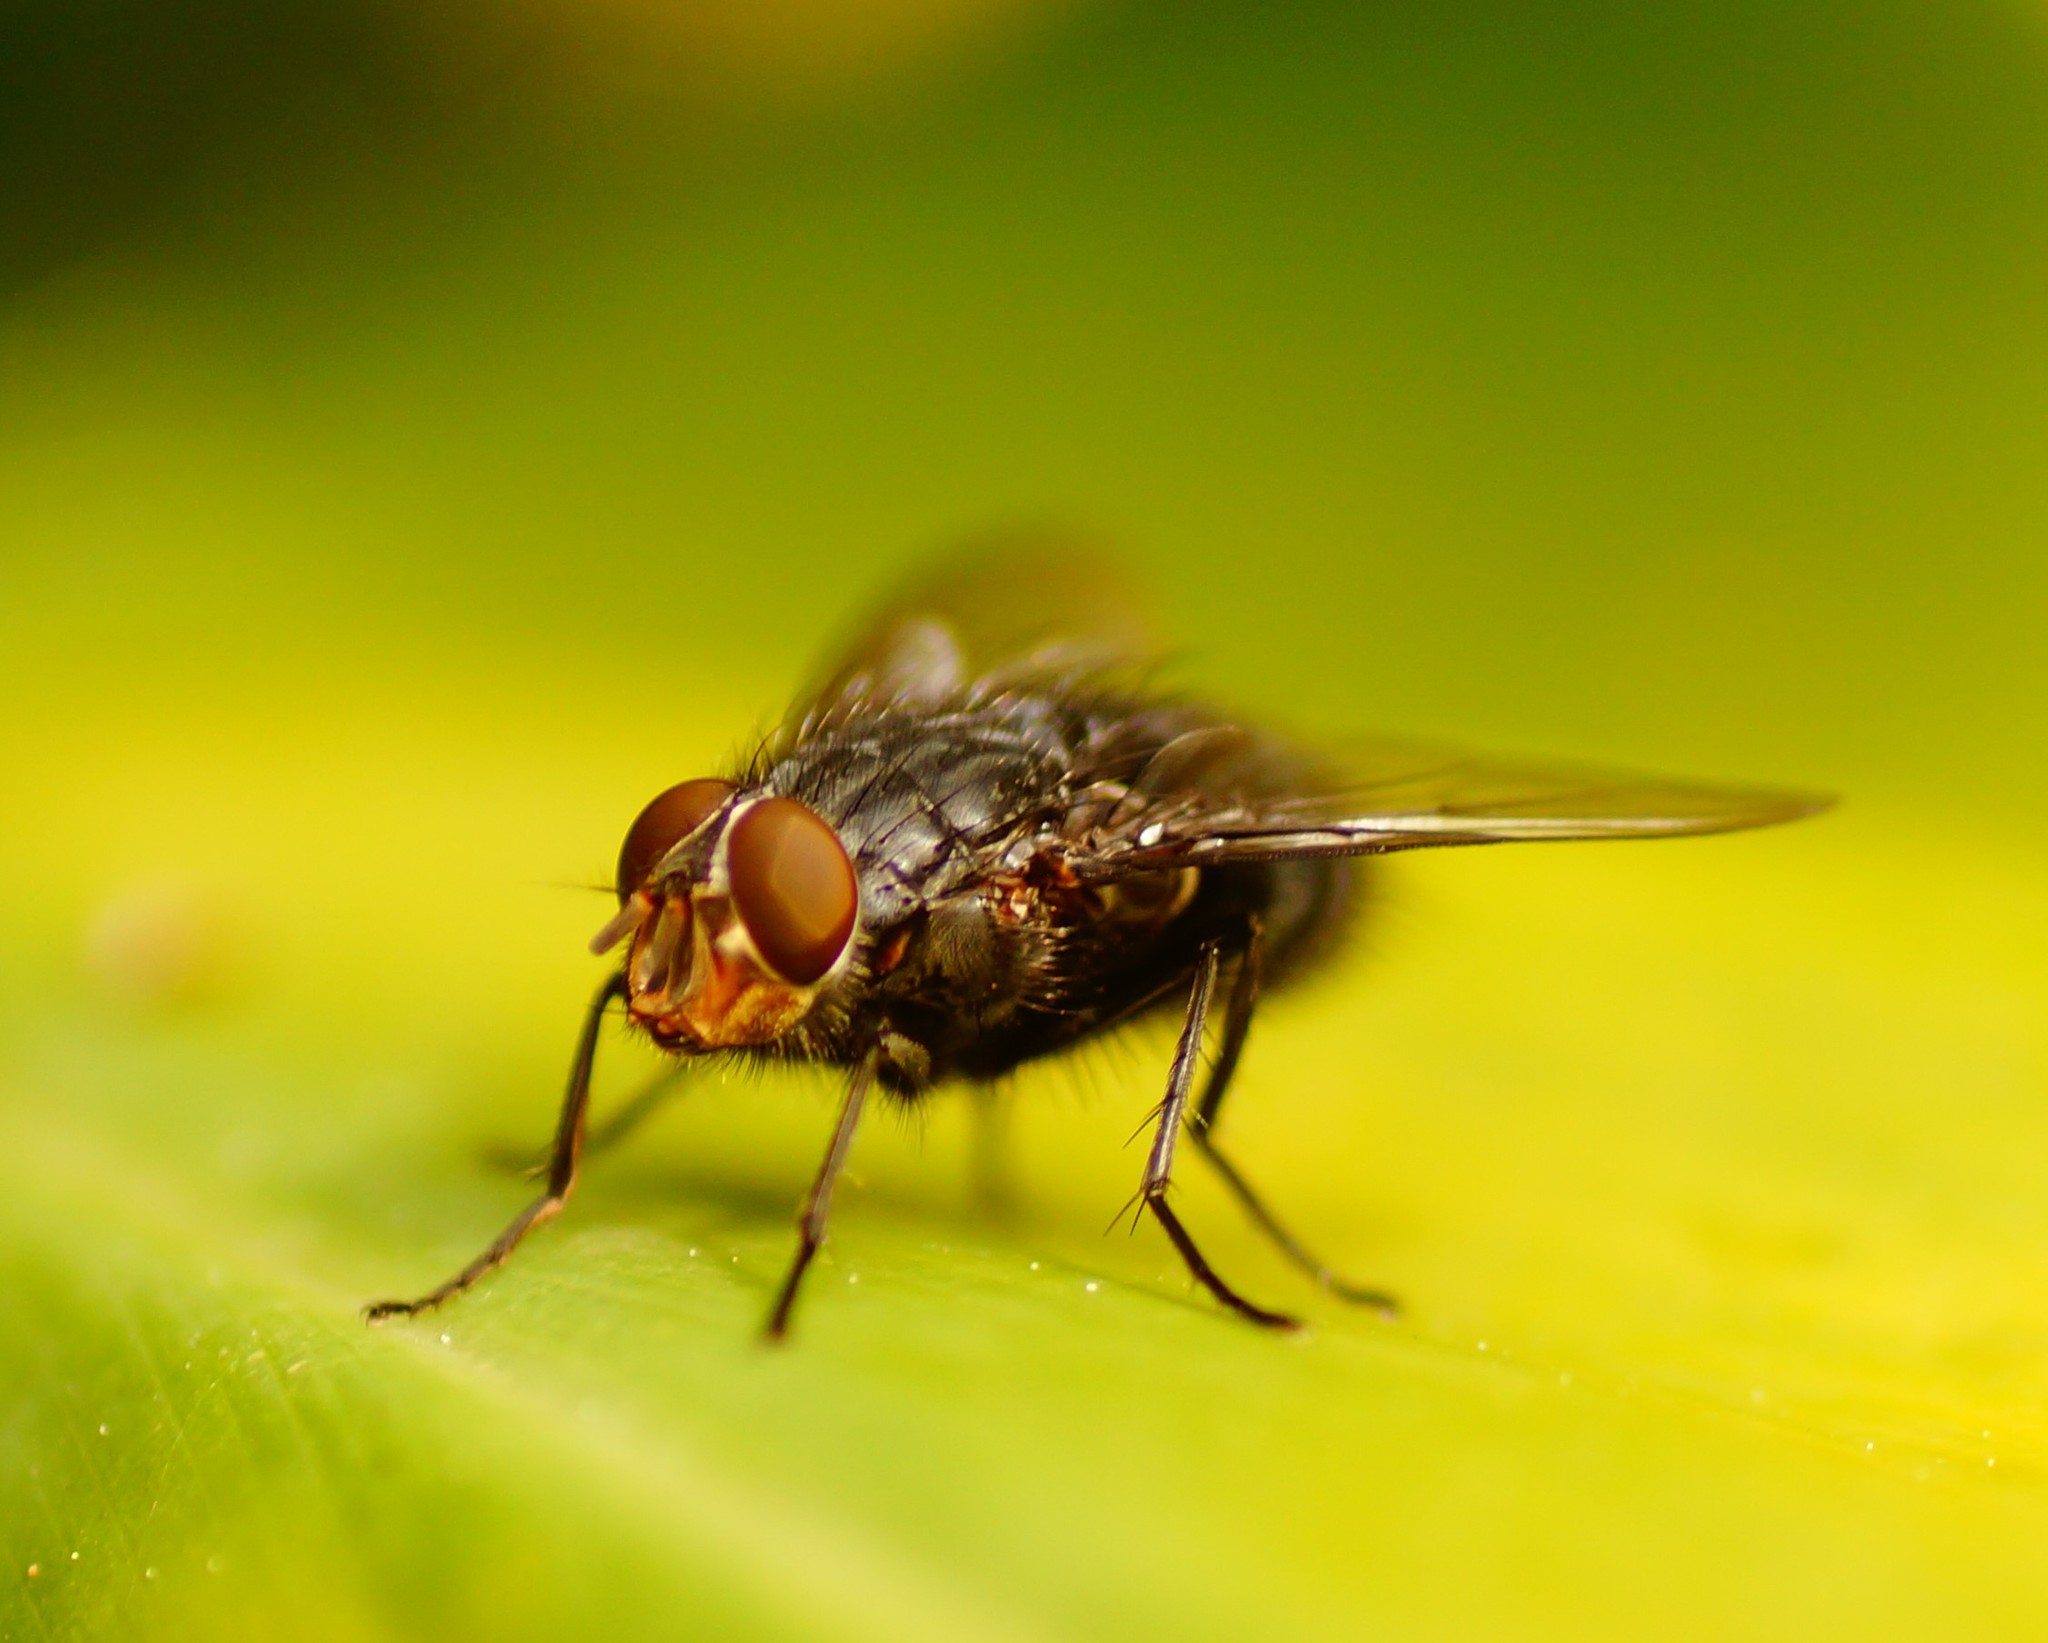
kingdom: Animalia
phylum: Arthropoda
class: Insecta
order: Diptera
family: Calliphoridae
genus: Calliphora
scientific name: Calliphora vicina
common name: Common blow flie
